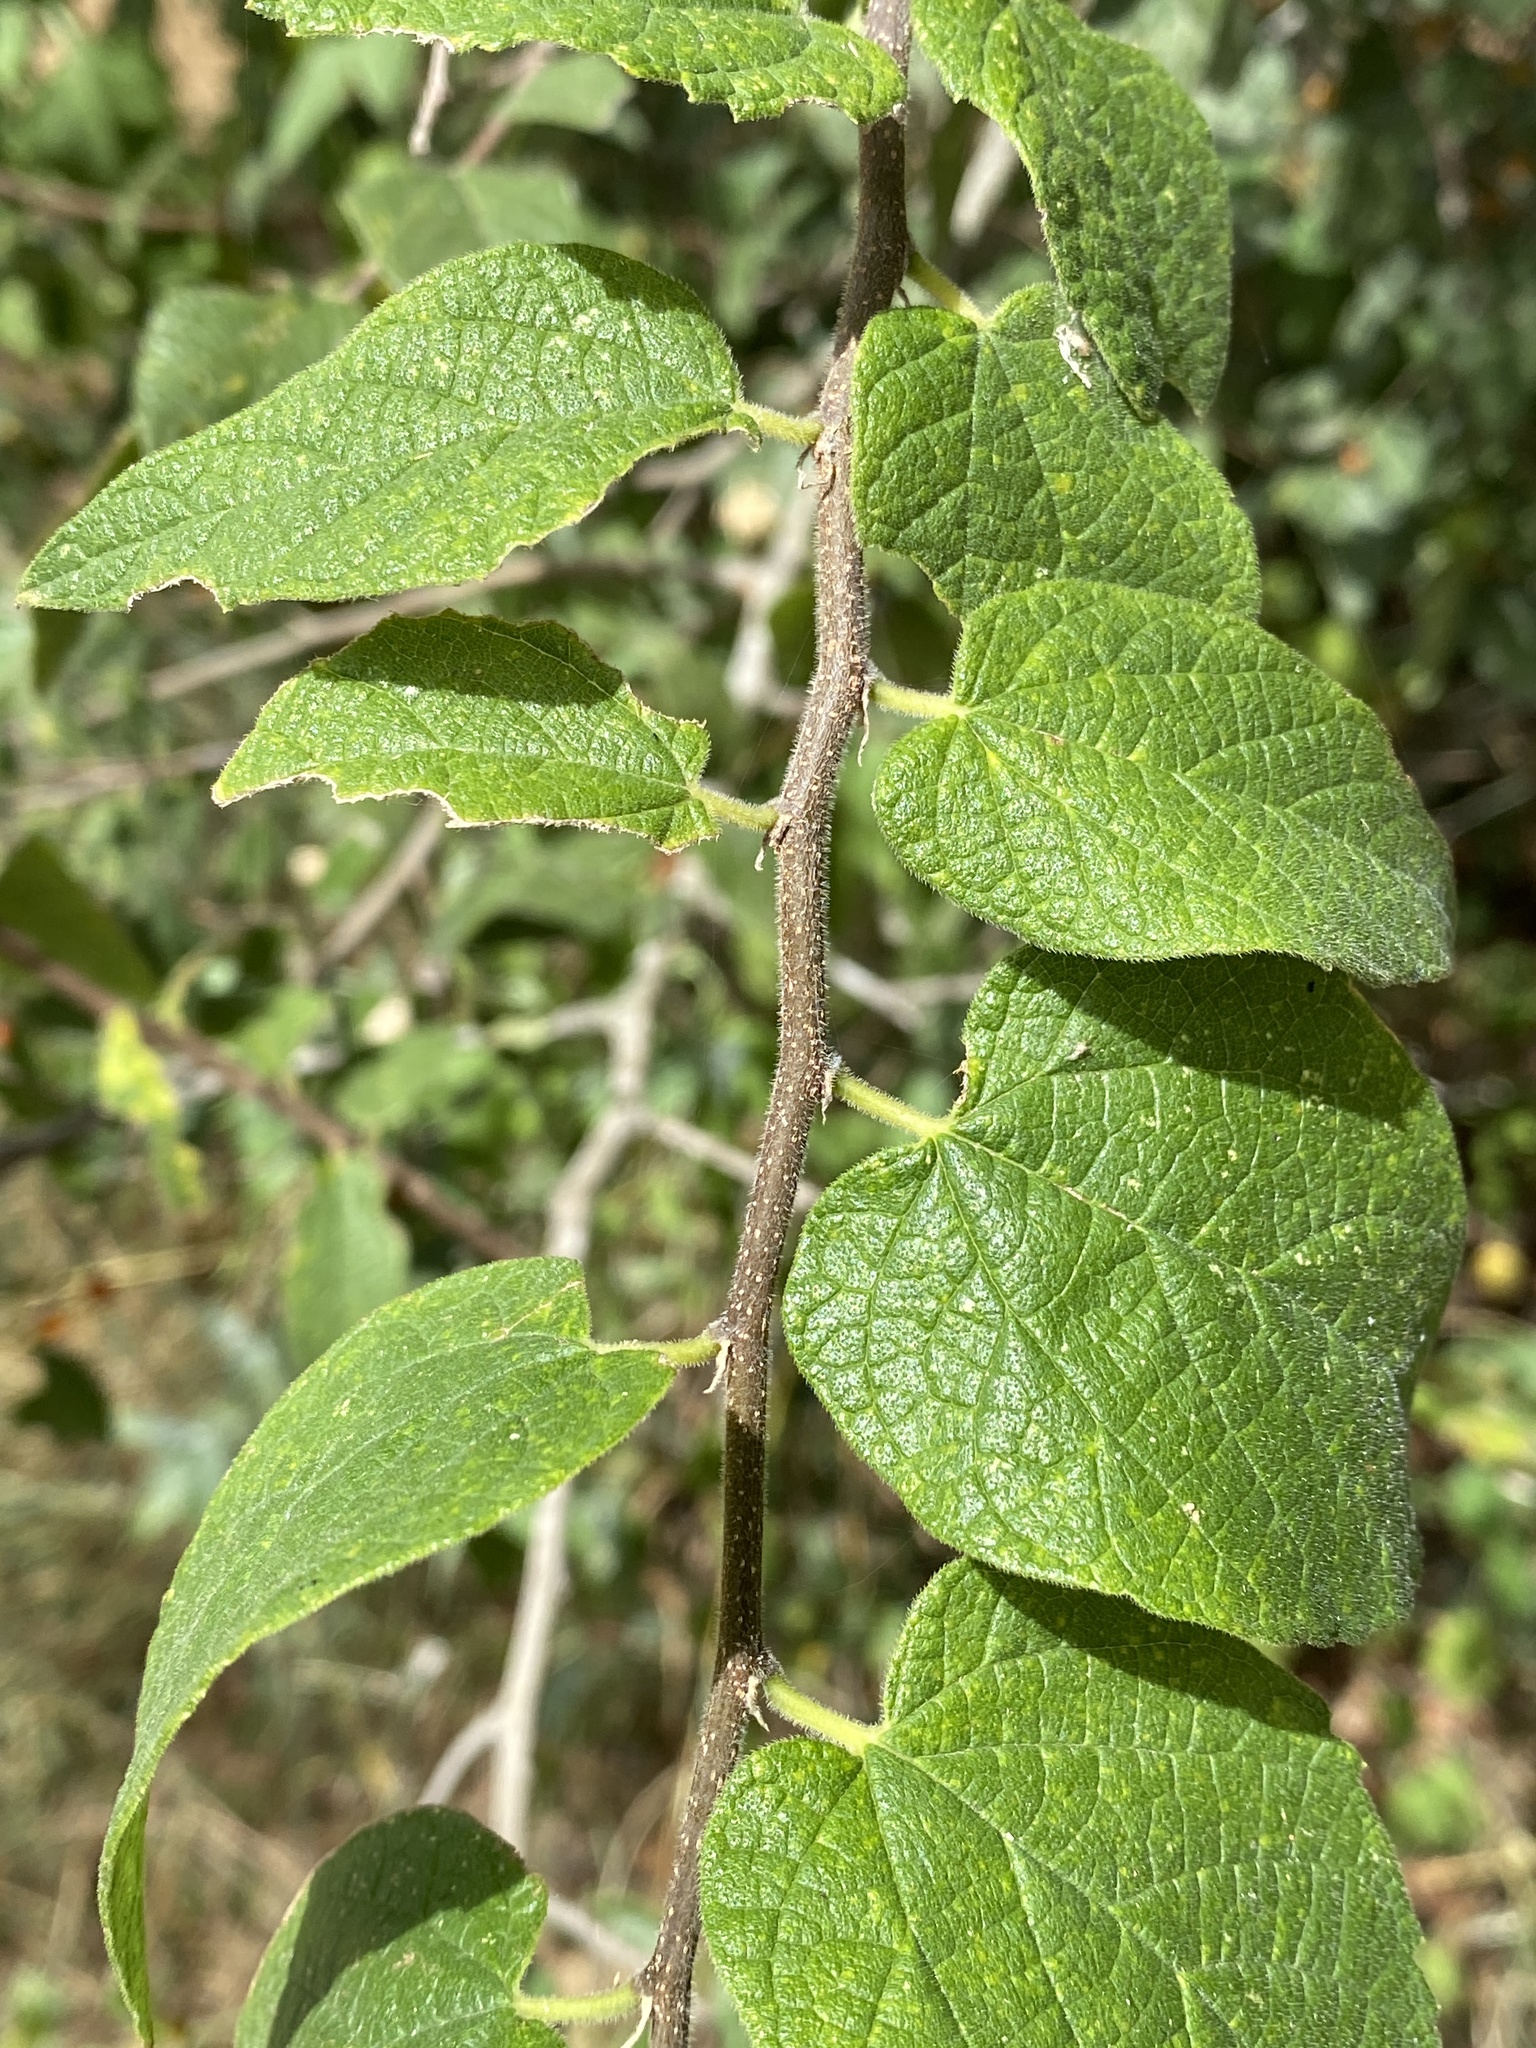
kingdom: Plantae
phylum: Tracheophyta
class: Magnoliopsida
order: Rosales
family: Cannabaceae
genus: Celtis
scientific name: Celtis reticulata
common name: Netleaf hackberry
